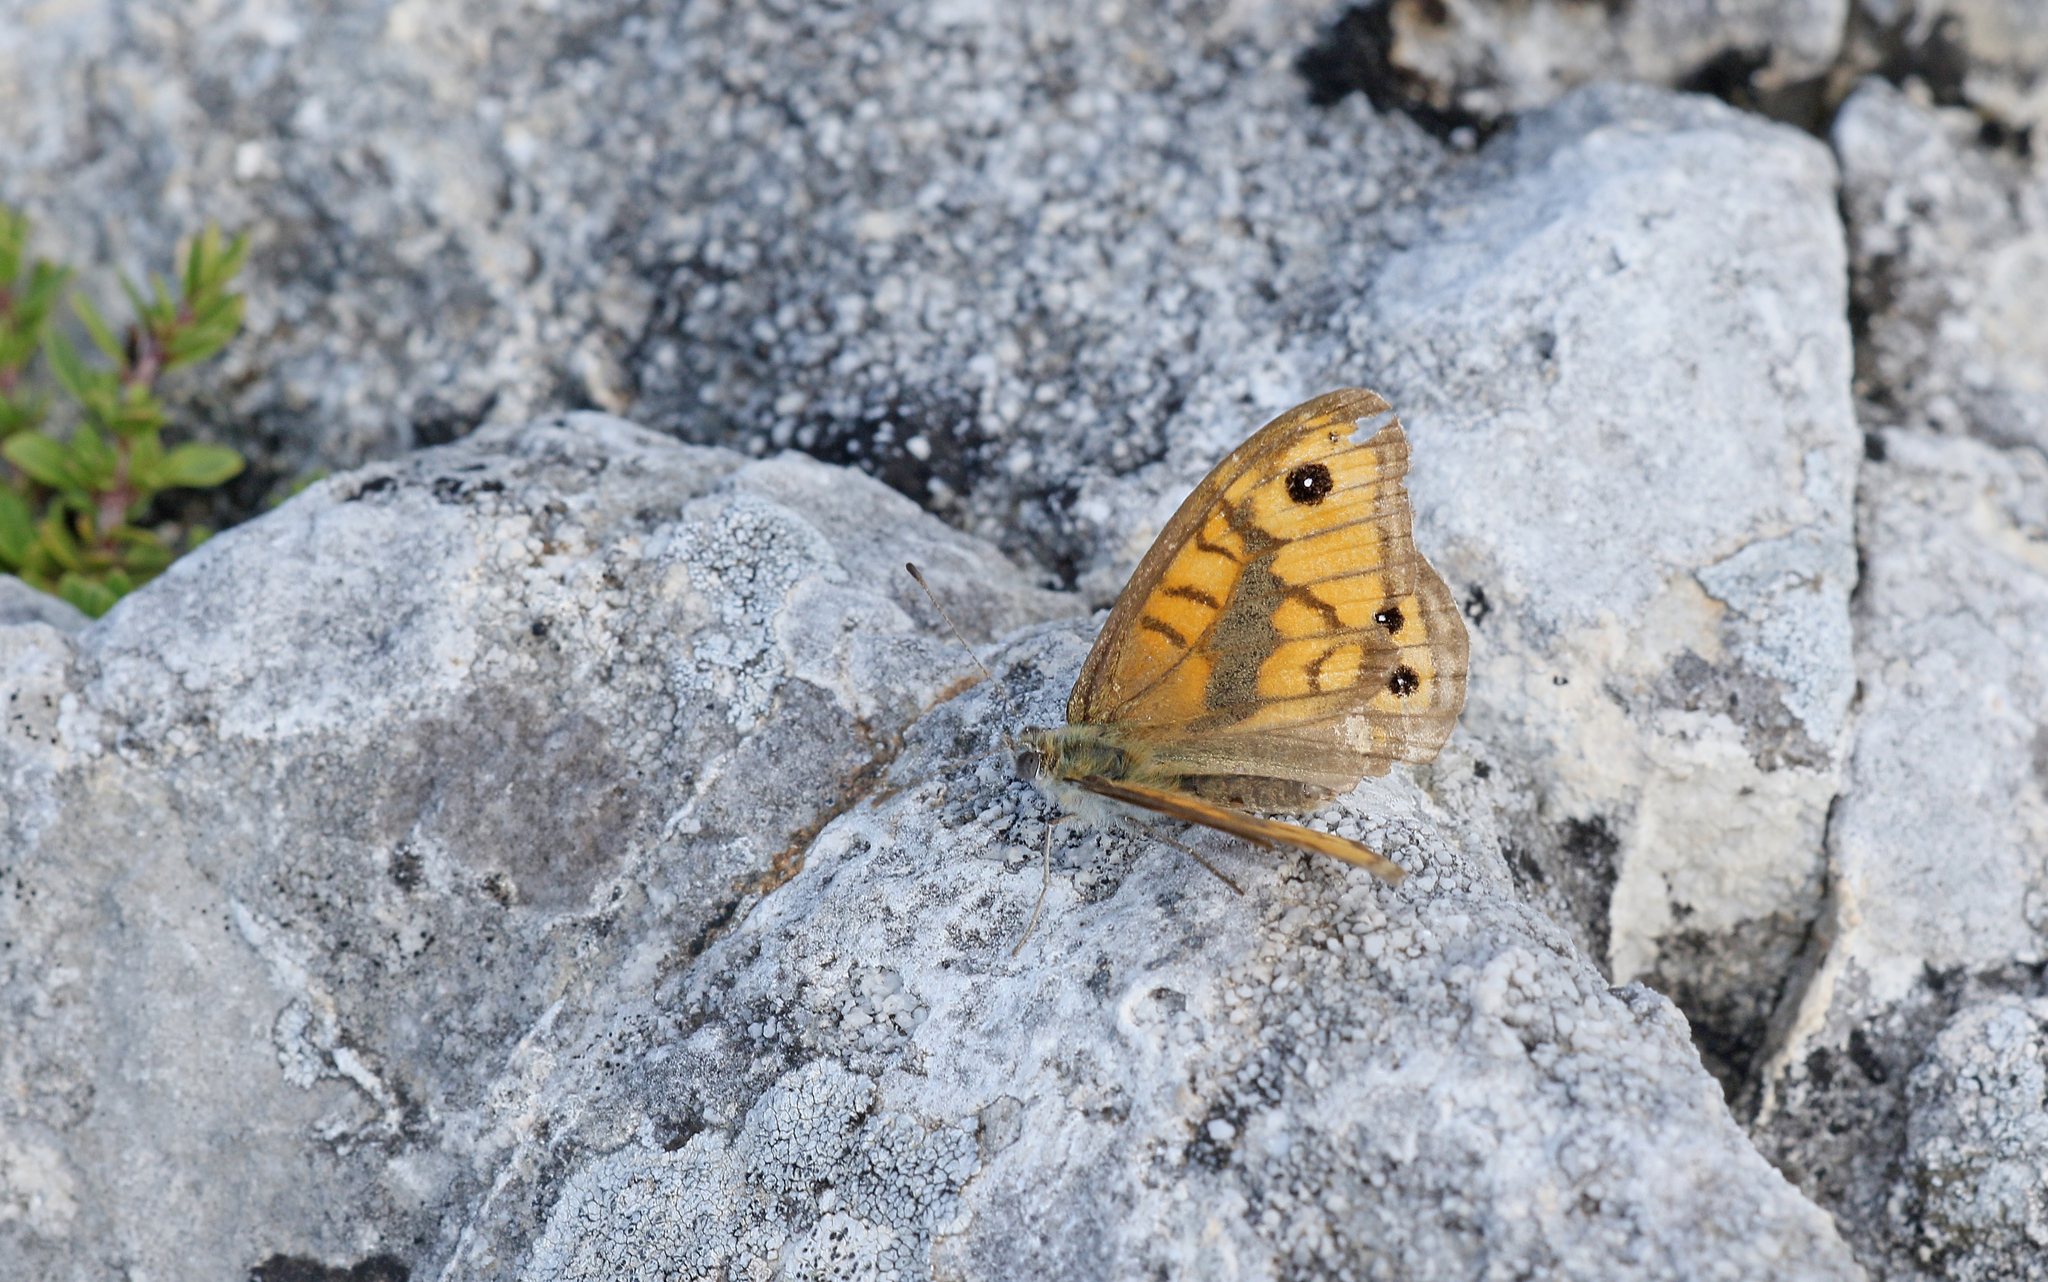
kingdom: Animalia
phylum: Arthropoda
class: Insecta
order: Lepidoptera
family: Nymphalidae
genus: Pararge
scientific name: Pararge Lasiommata megera
